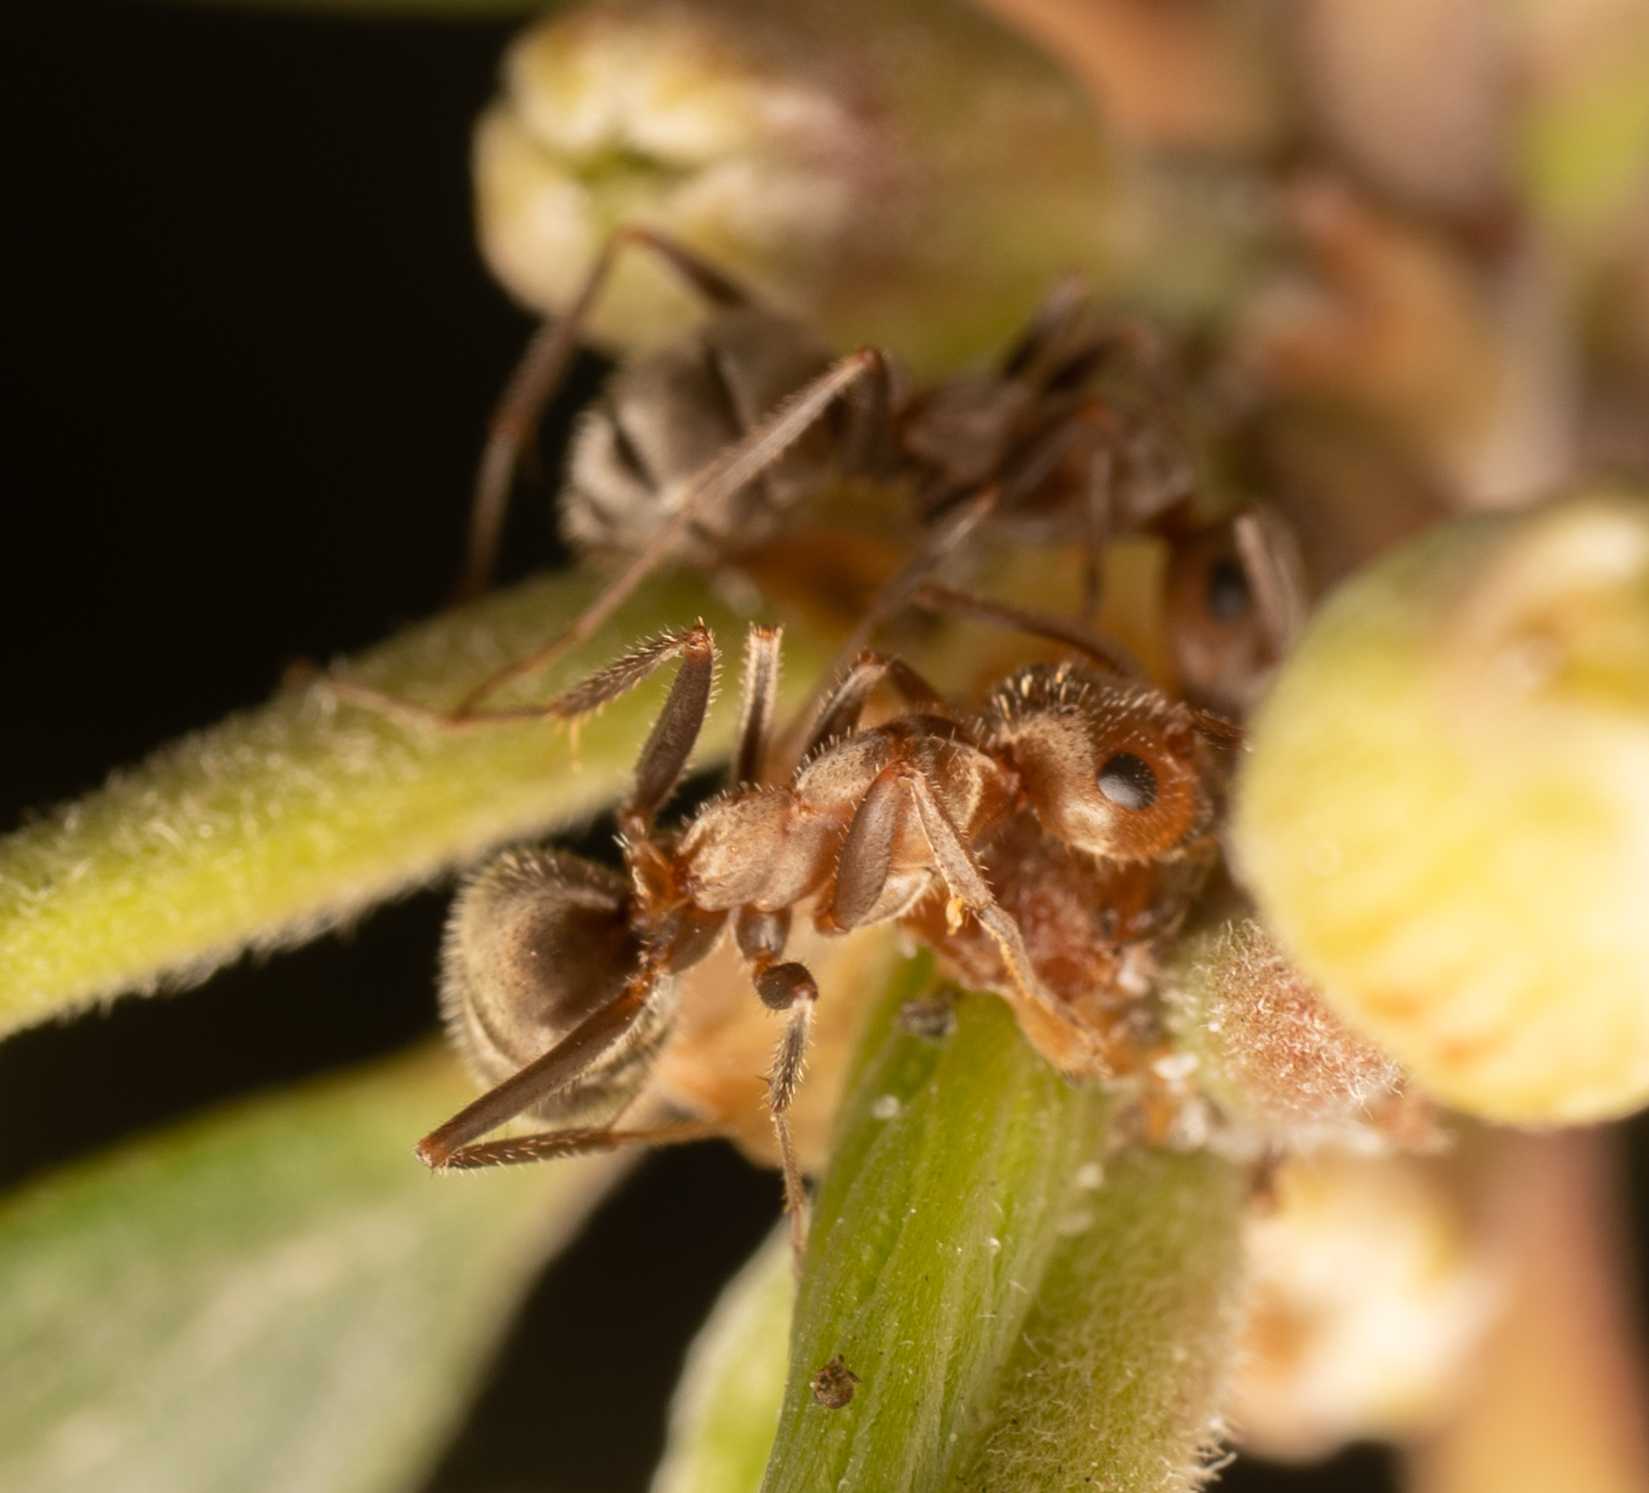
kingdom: Animalia
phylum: Arthropoda
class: Insecta
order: Hymenoptera
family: Formicidae
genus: Formica
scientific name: Formica francoeuri
